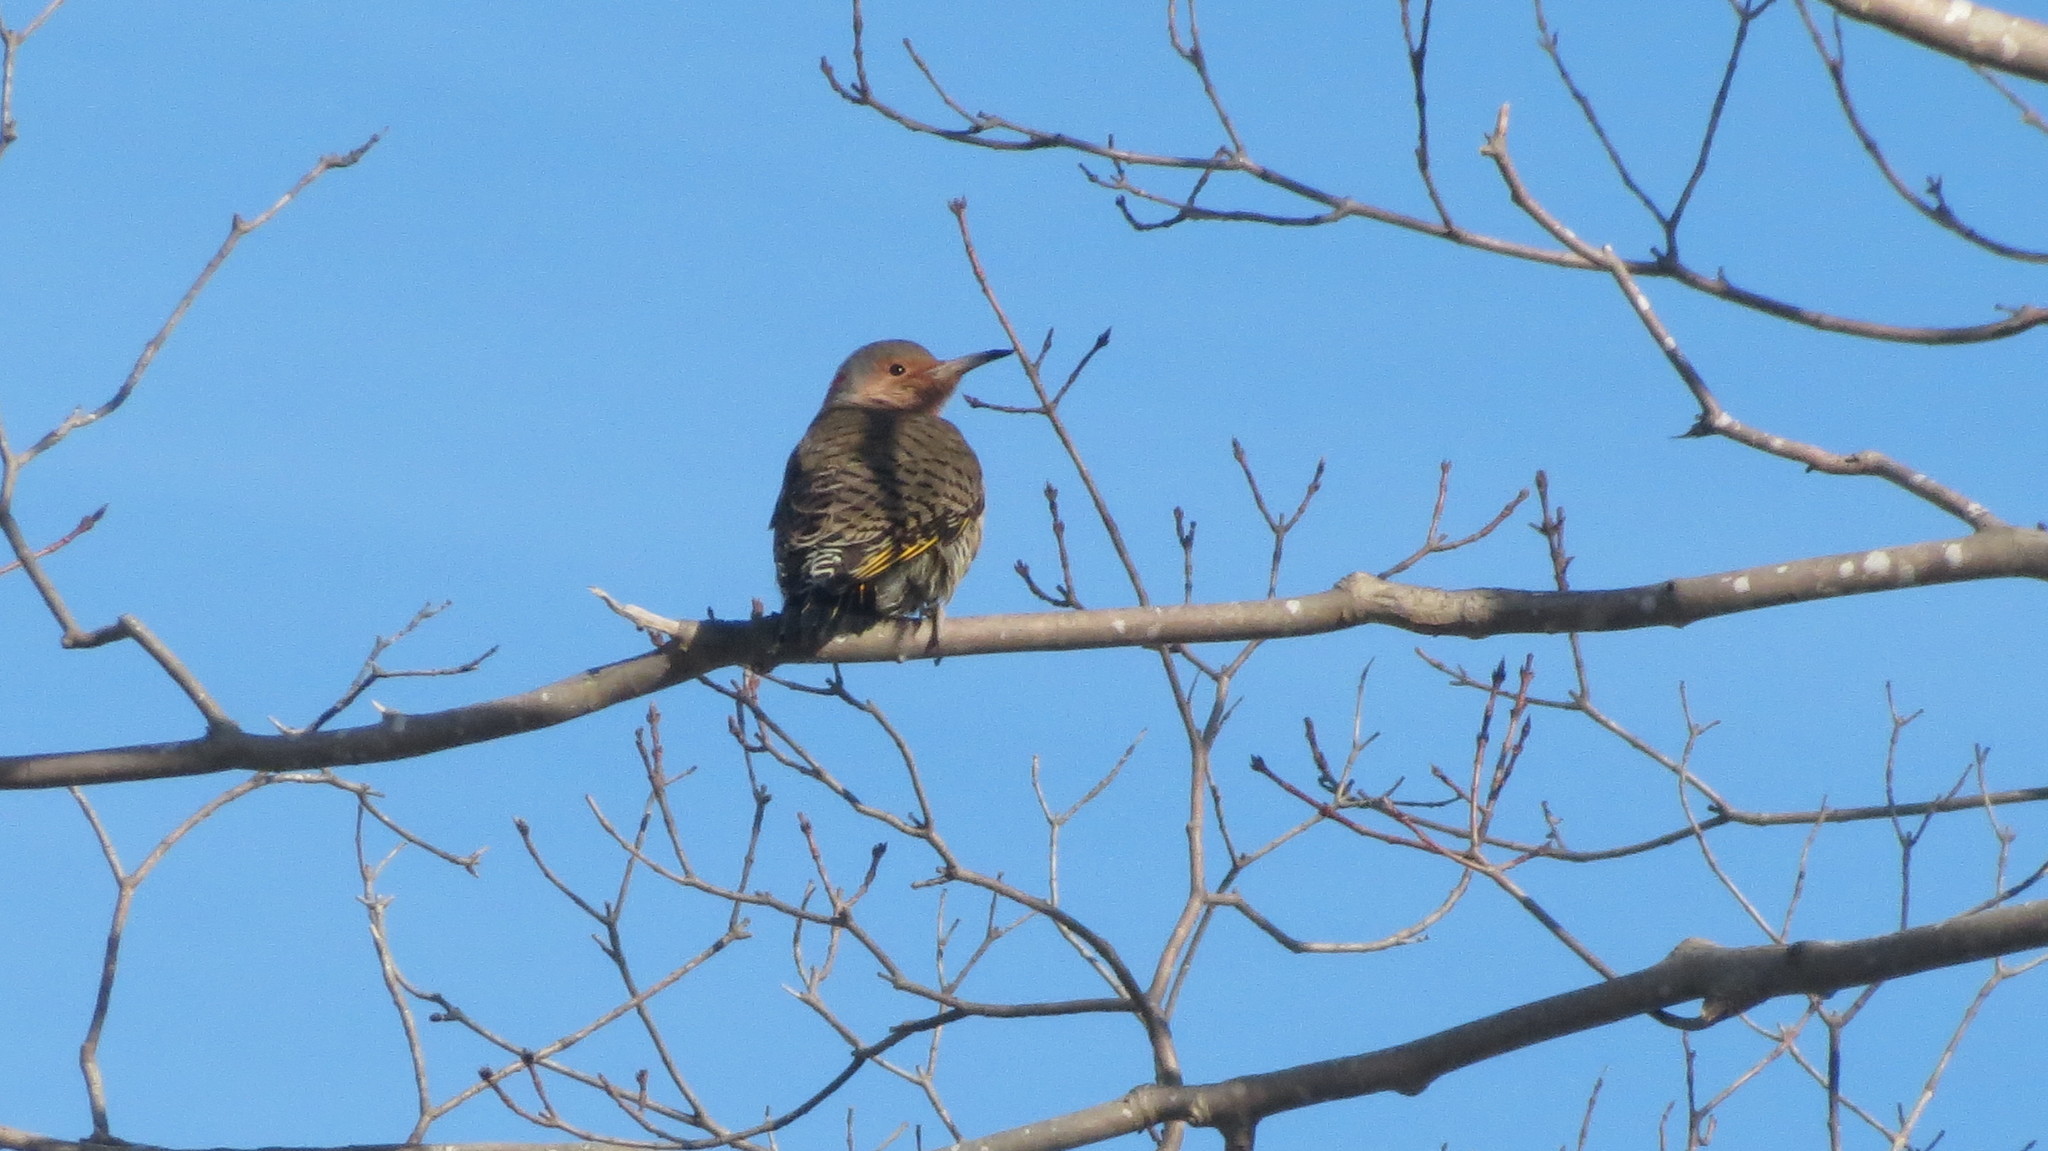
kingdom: Animalia
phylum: Chordata
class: Aves
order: Piciformes
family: Picidae
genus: Colaptes
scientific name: Colaptes auratus
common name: Northern flicker
